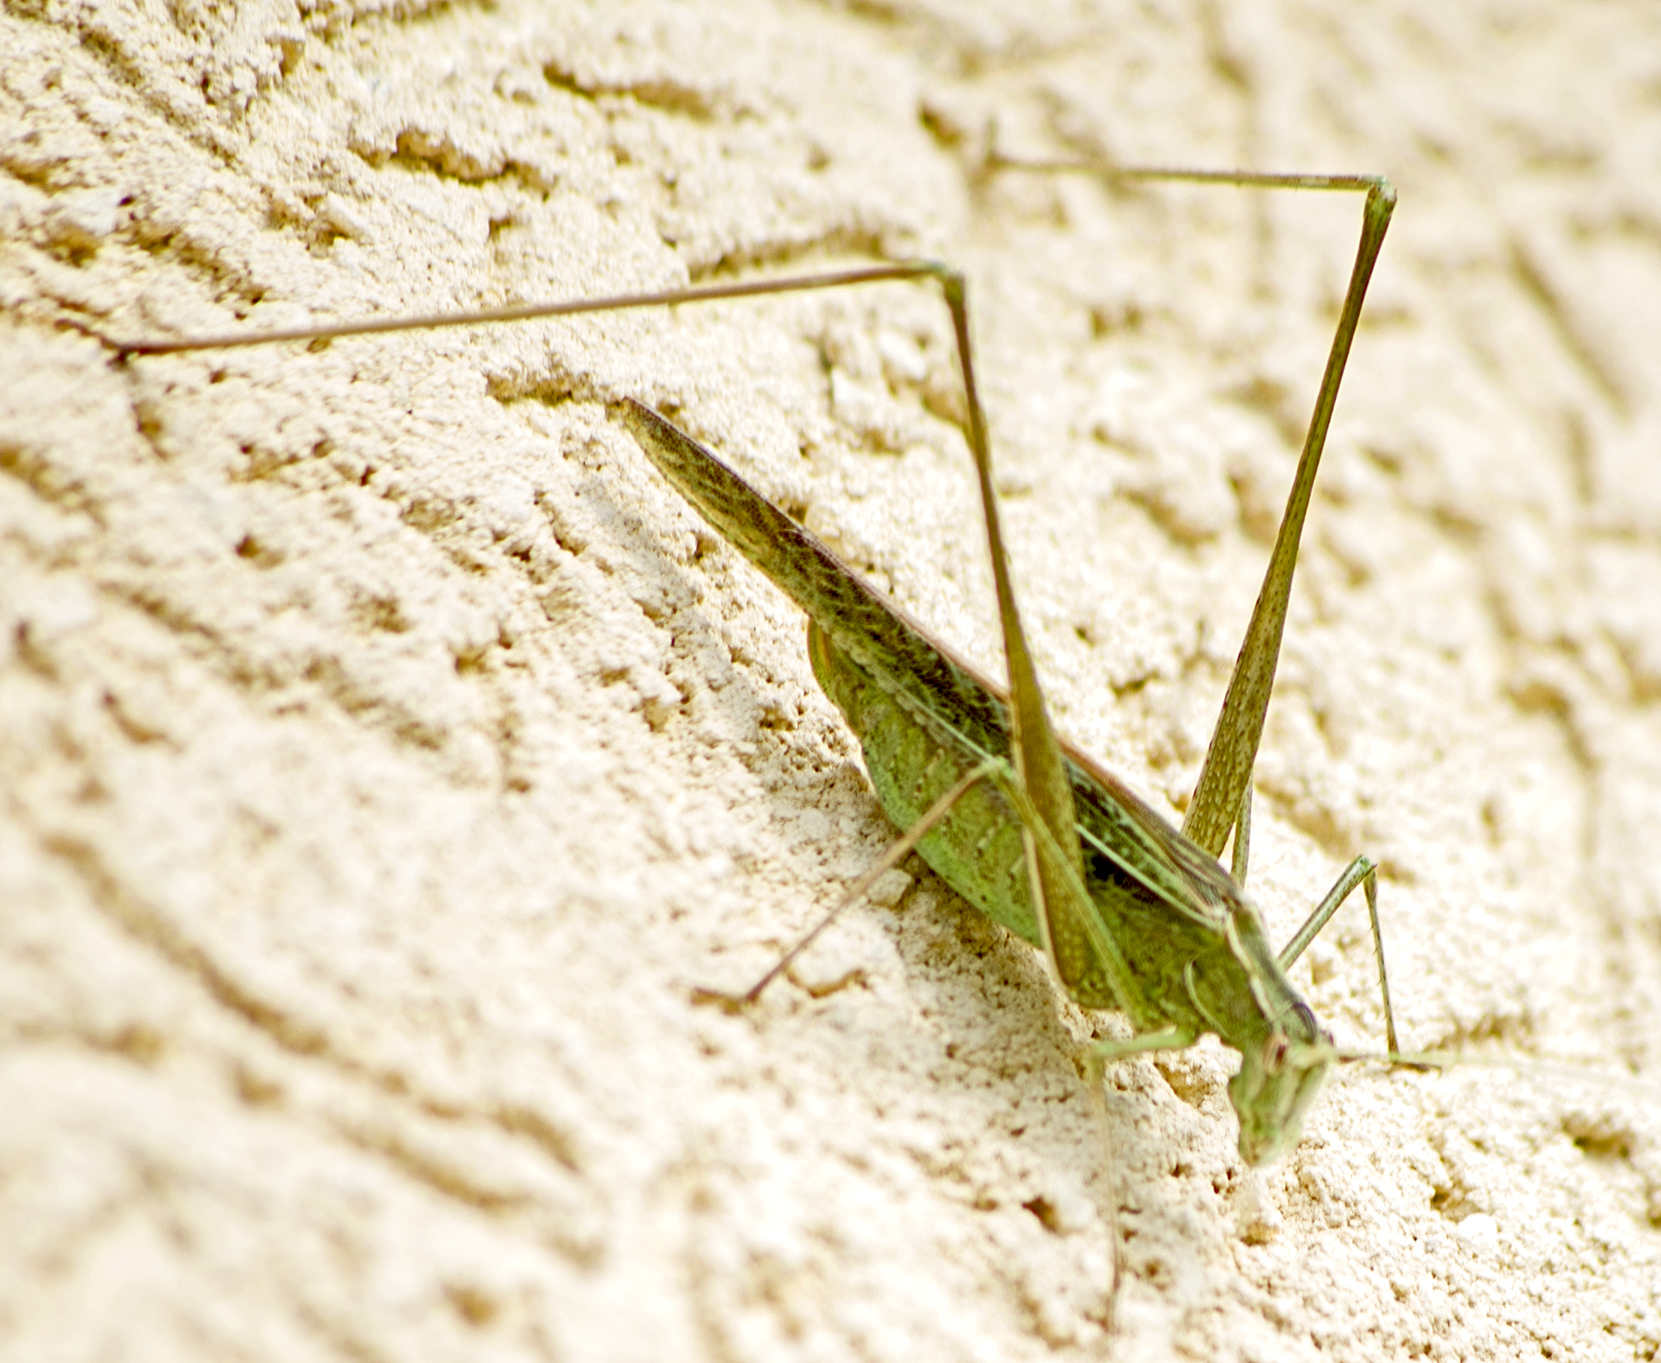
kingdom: Animalia
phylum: Arthropoda
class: Insecta
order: Orthoptera
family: Tettigoniidae
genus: Tylopsis
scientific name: Tylopsis lilifolia
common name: Lily bush-cricket
